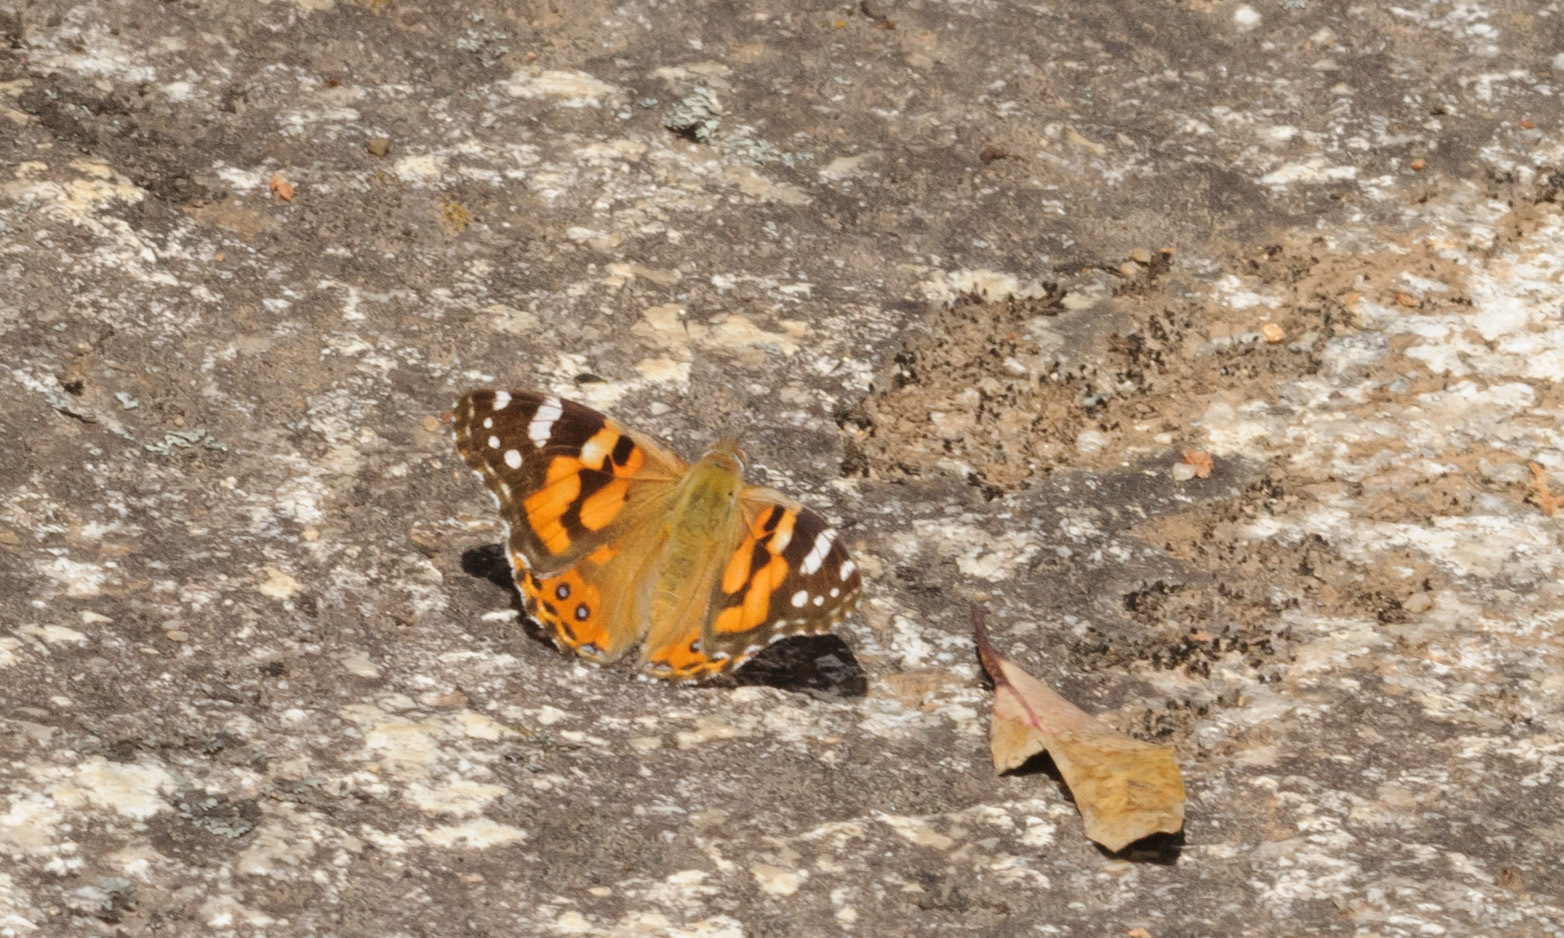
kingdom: Animalia
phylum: Arthropoda
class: Insecta
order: Lepidoptera
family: Nymphalidae
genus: Vanessa
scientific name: Vanessa kershawi
